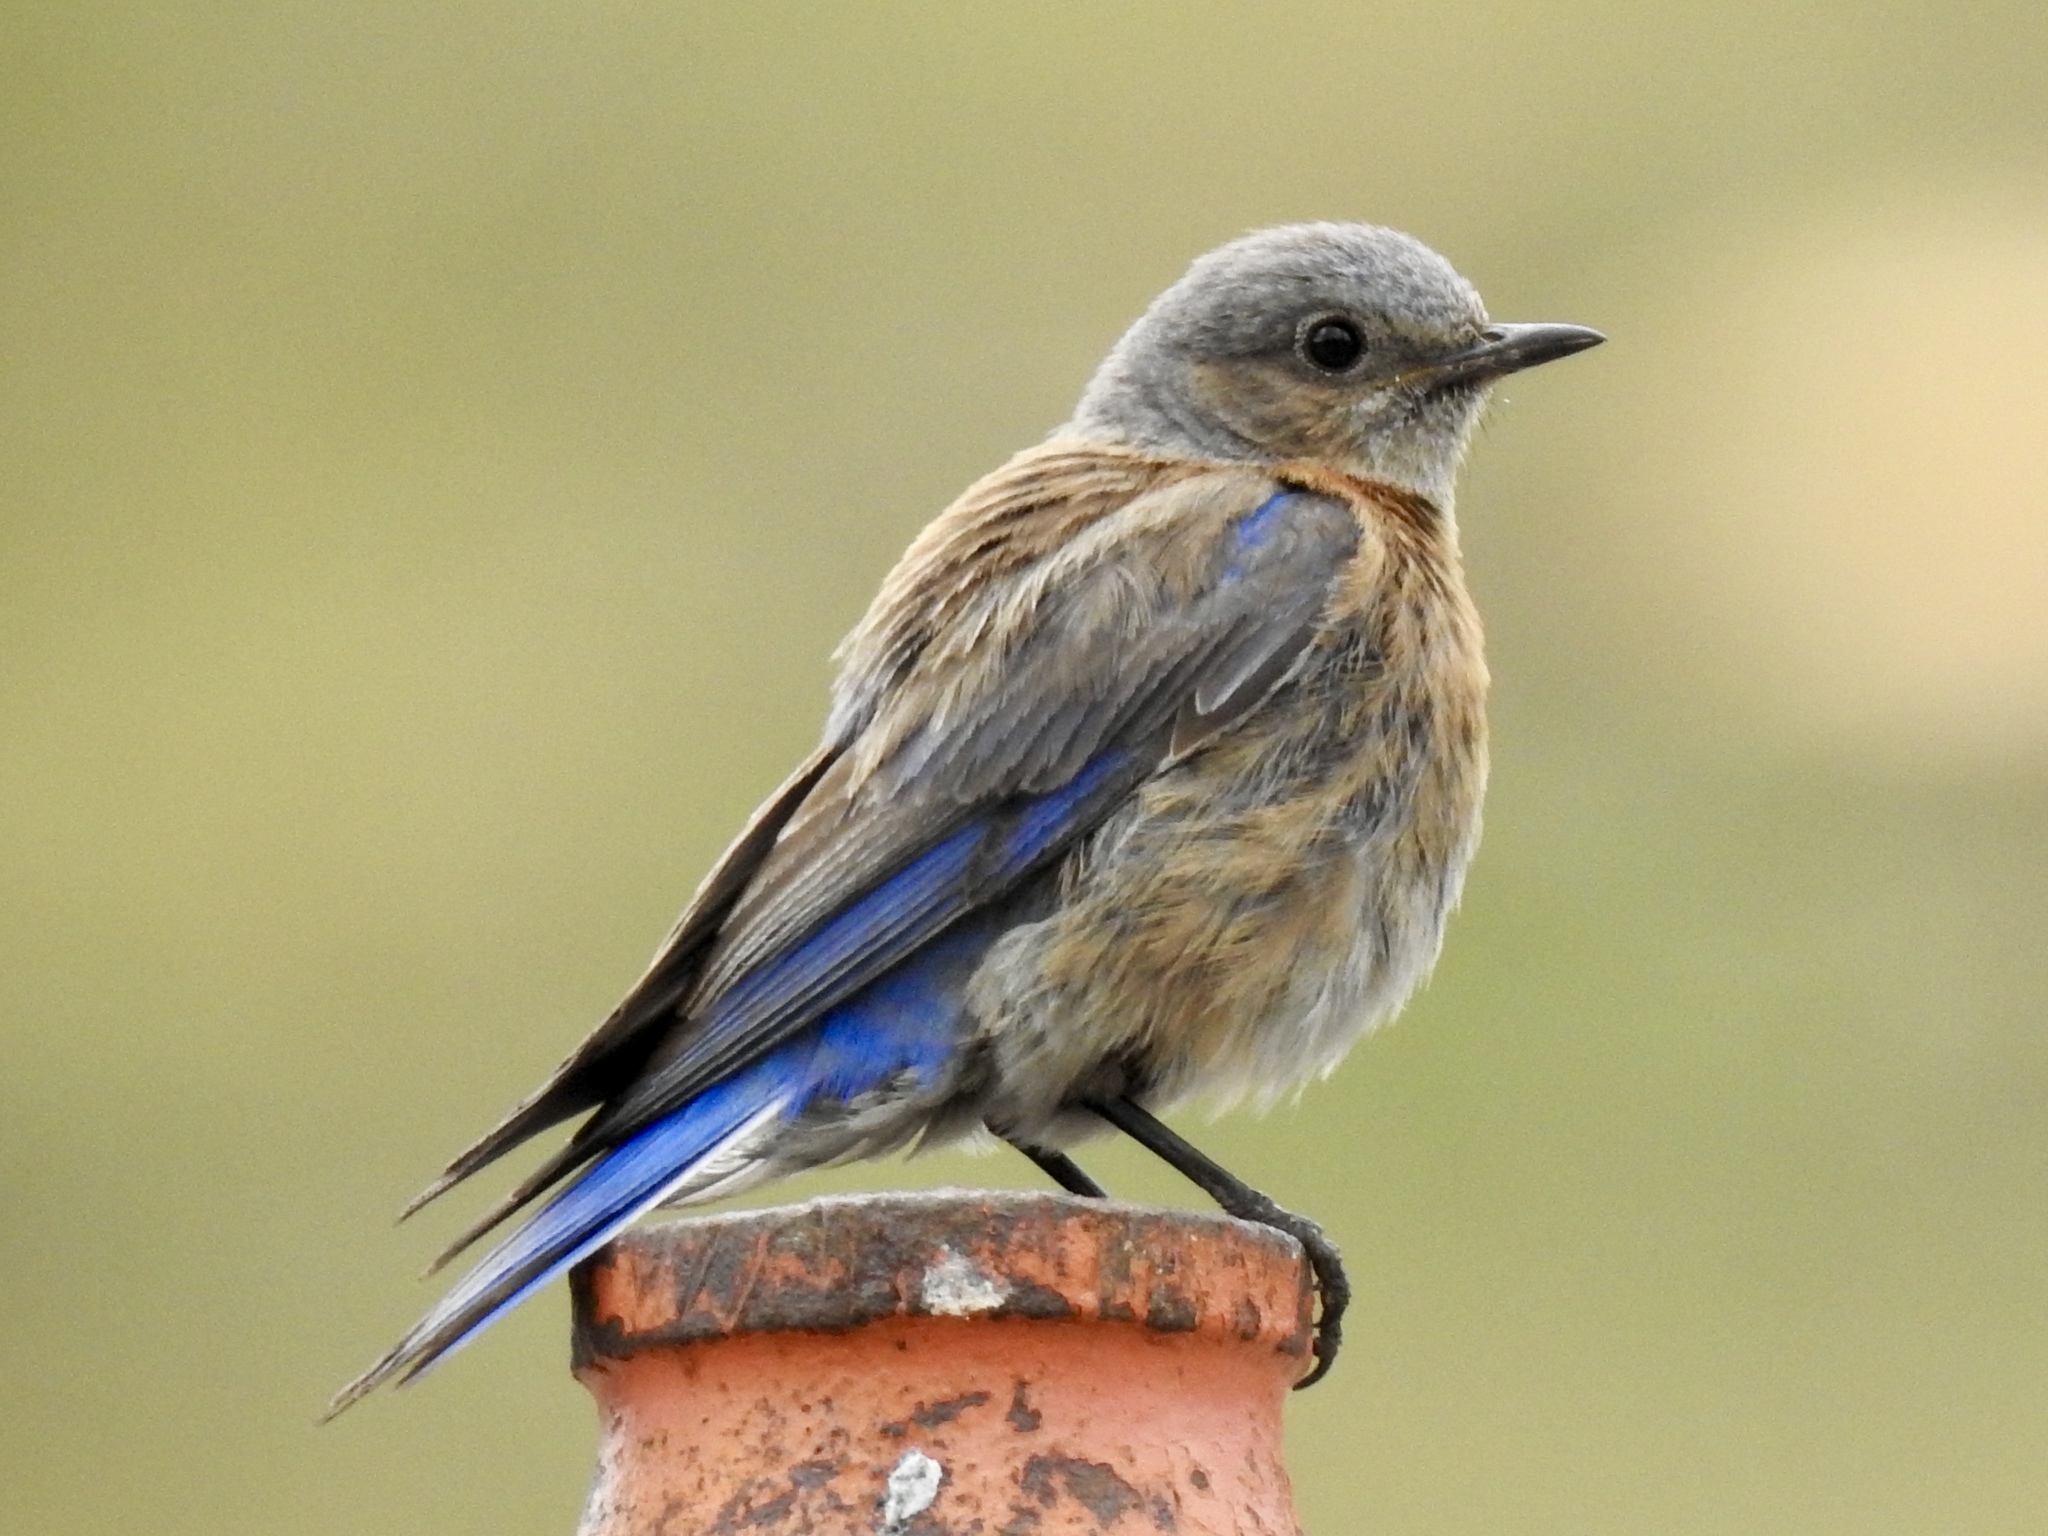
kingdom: Animalia
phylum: Chordata
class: Aves
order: Passeriformes
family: Turdidae
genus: Sialia
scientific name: Sialia mexicana
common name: Western bluebird
